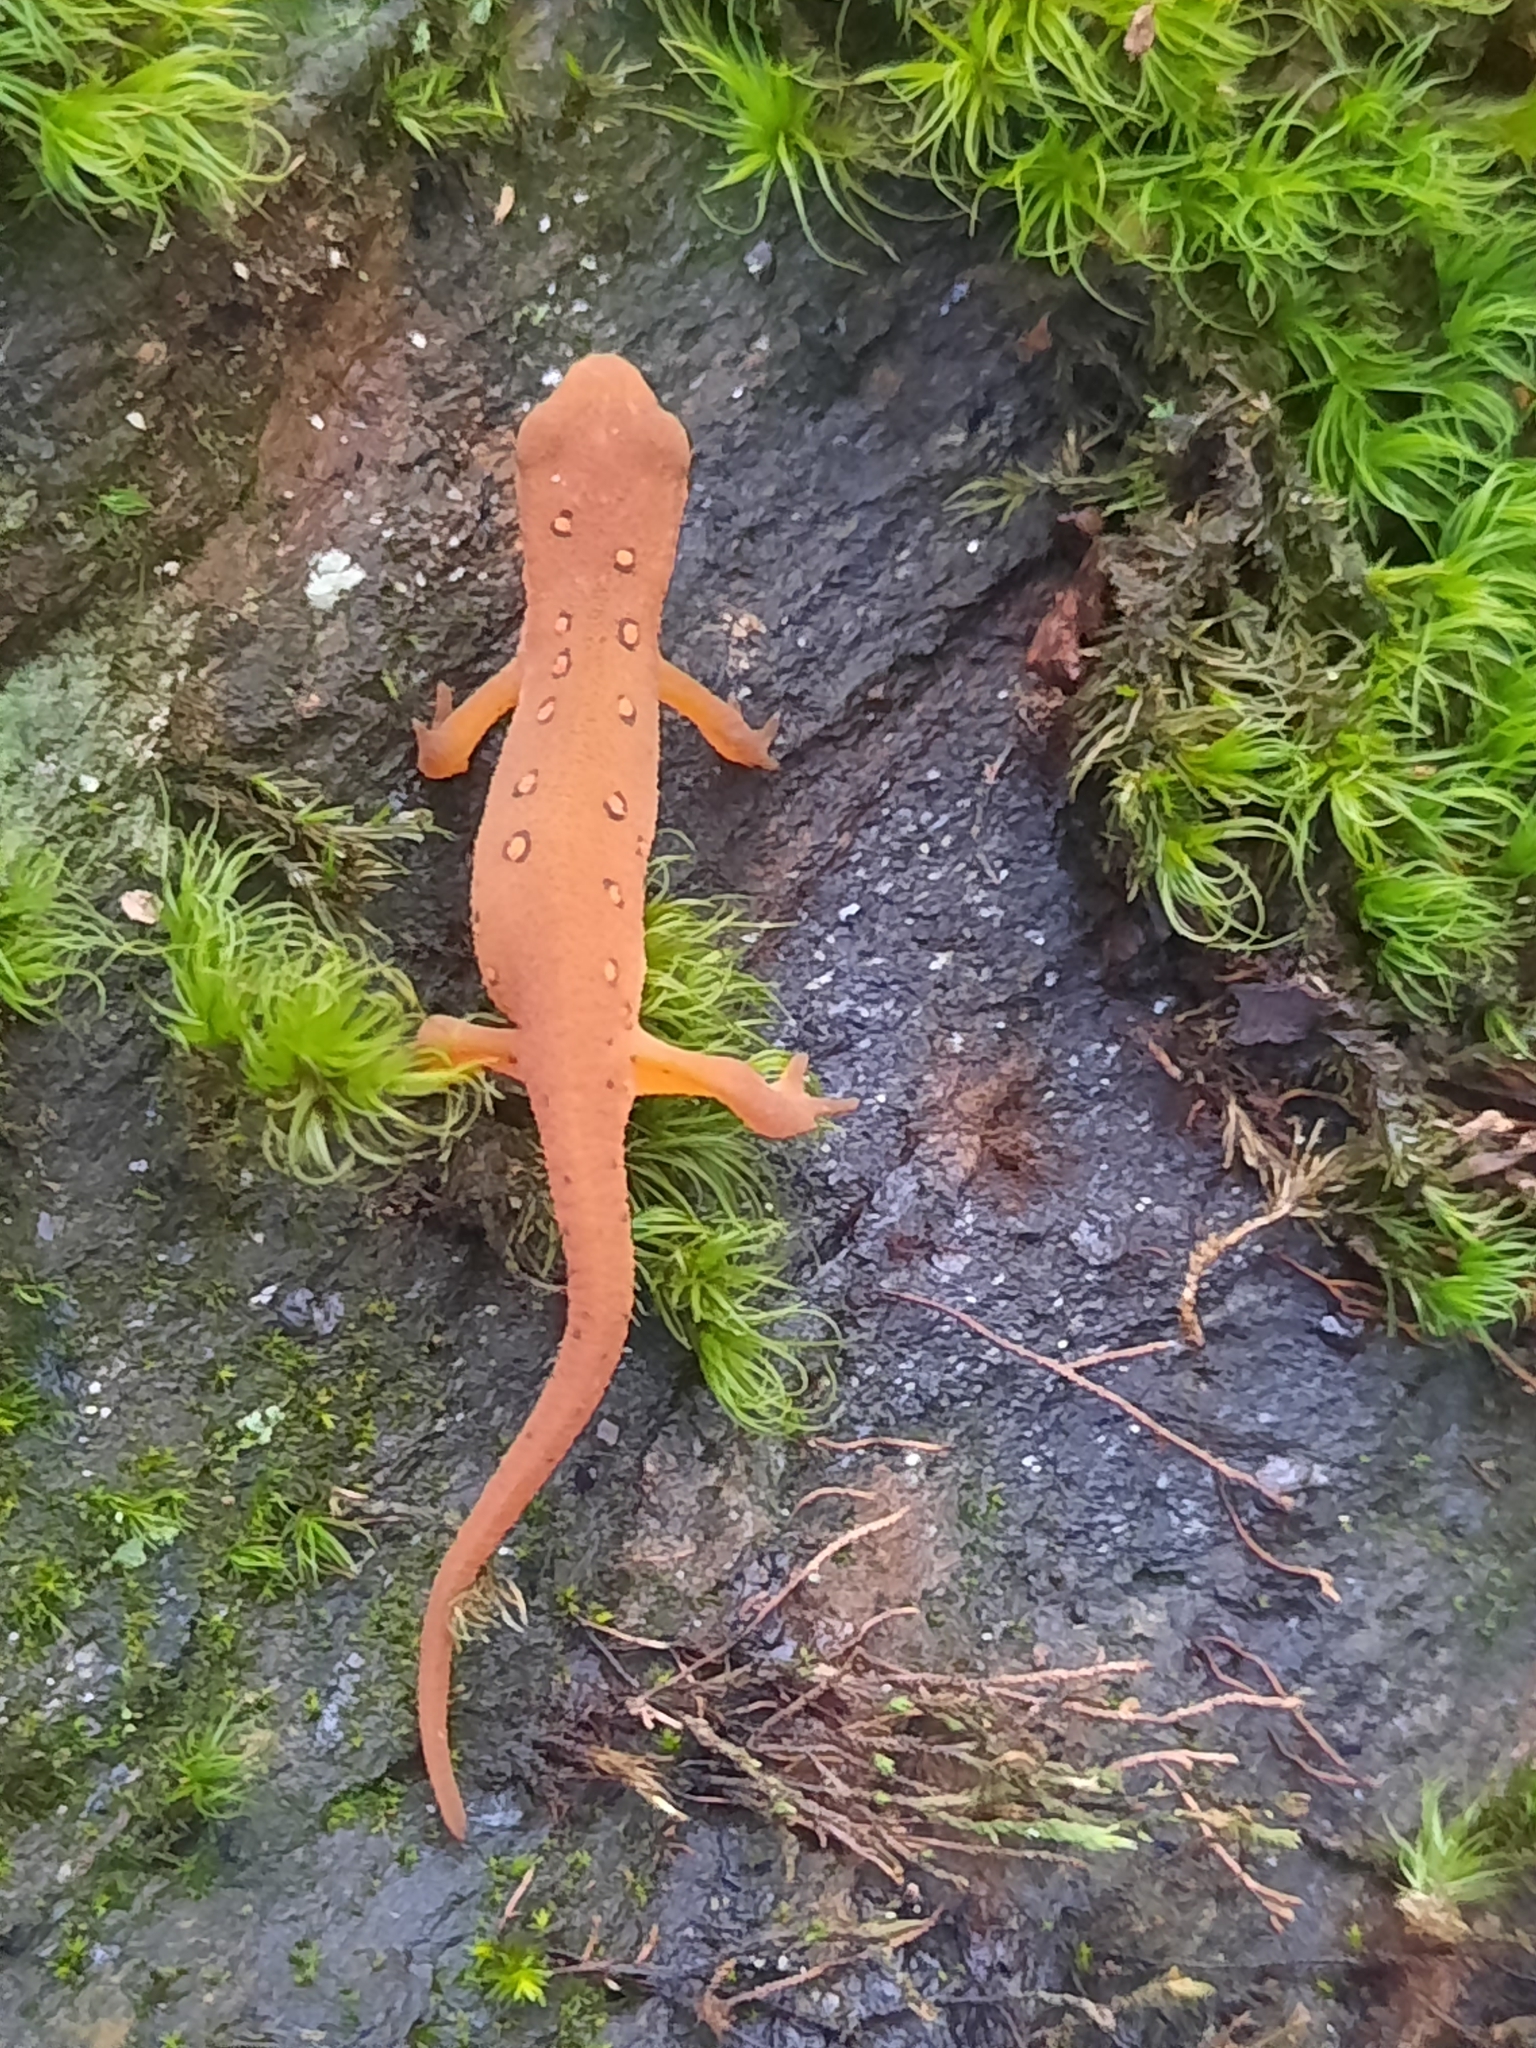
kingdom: Animalia
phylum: Chordata
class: Amphibia
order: Caudata
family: Salamandridae
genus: Notophthalmus
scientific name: Notophthalmus viridescens
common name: Eastern newt
